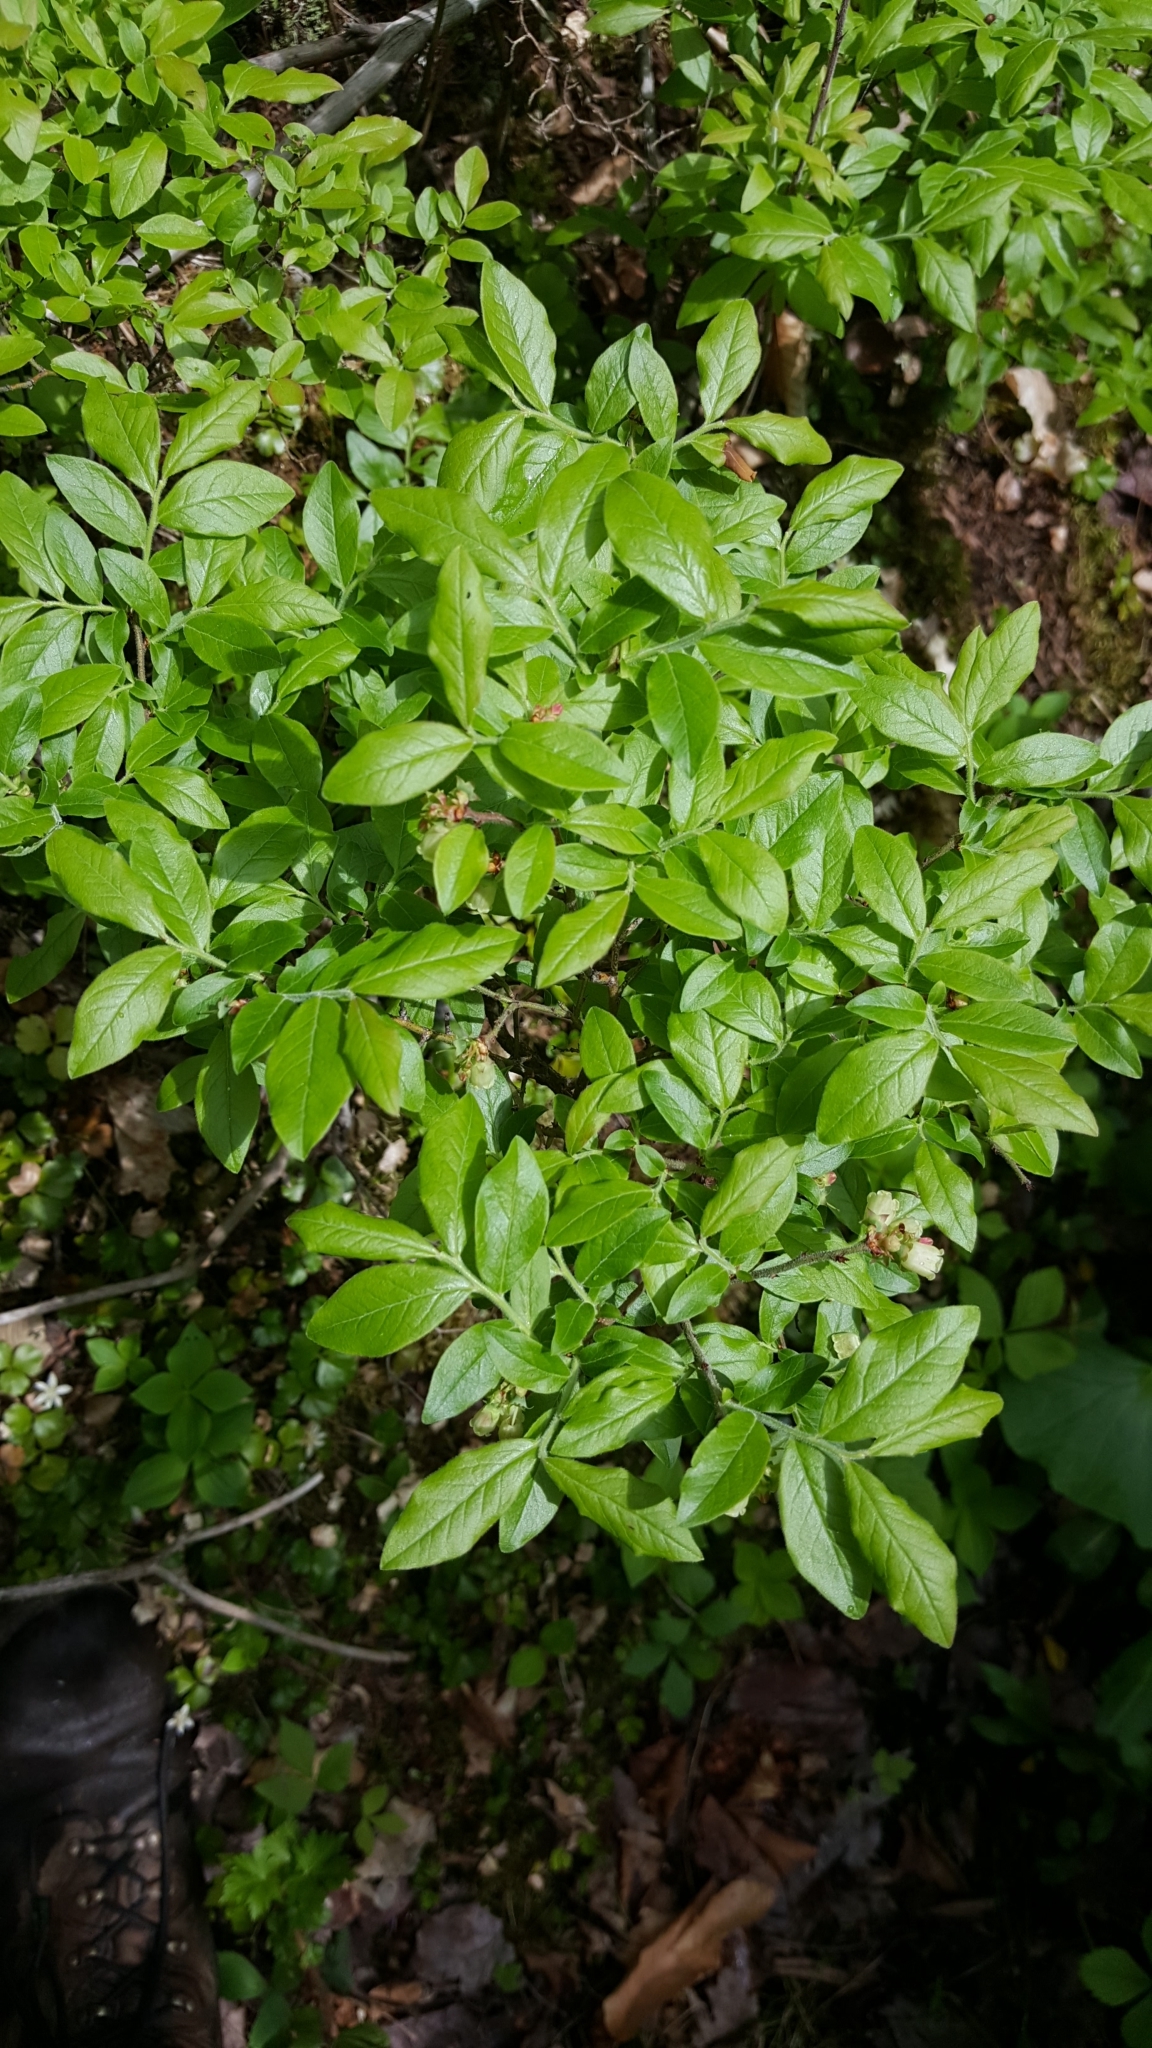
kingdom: Plantae
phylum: Tracheophyta
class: Magnoliopsida
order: Ericales
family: Ericaceae
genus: Vaccinium
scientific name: Vaccinium myrtilloides
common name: Canada blueberry
